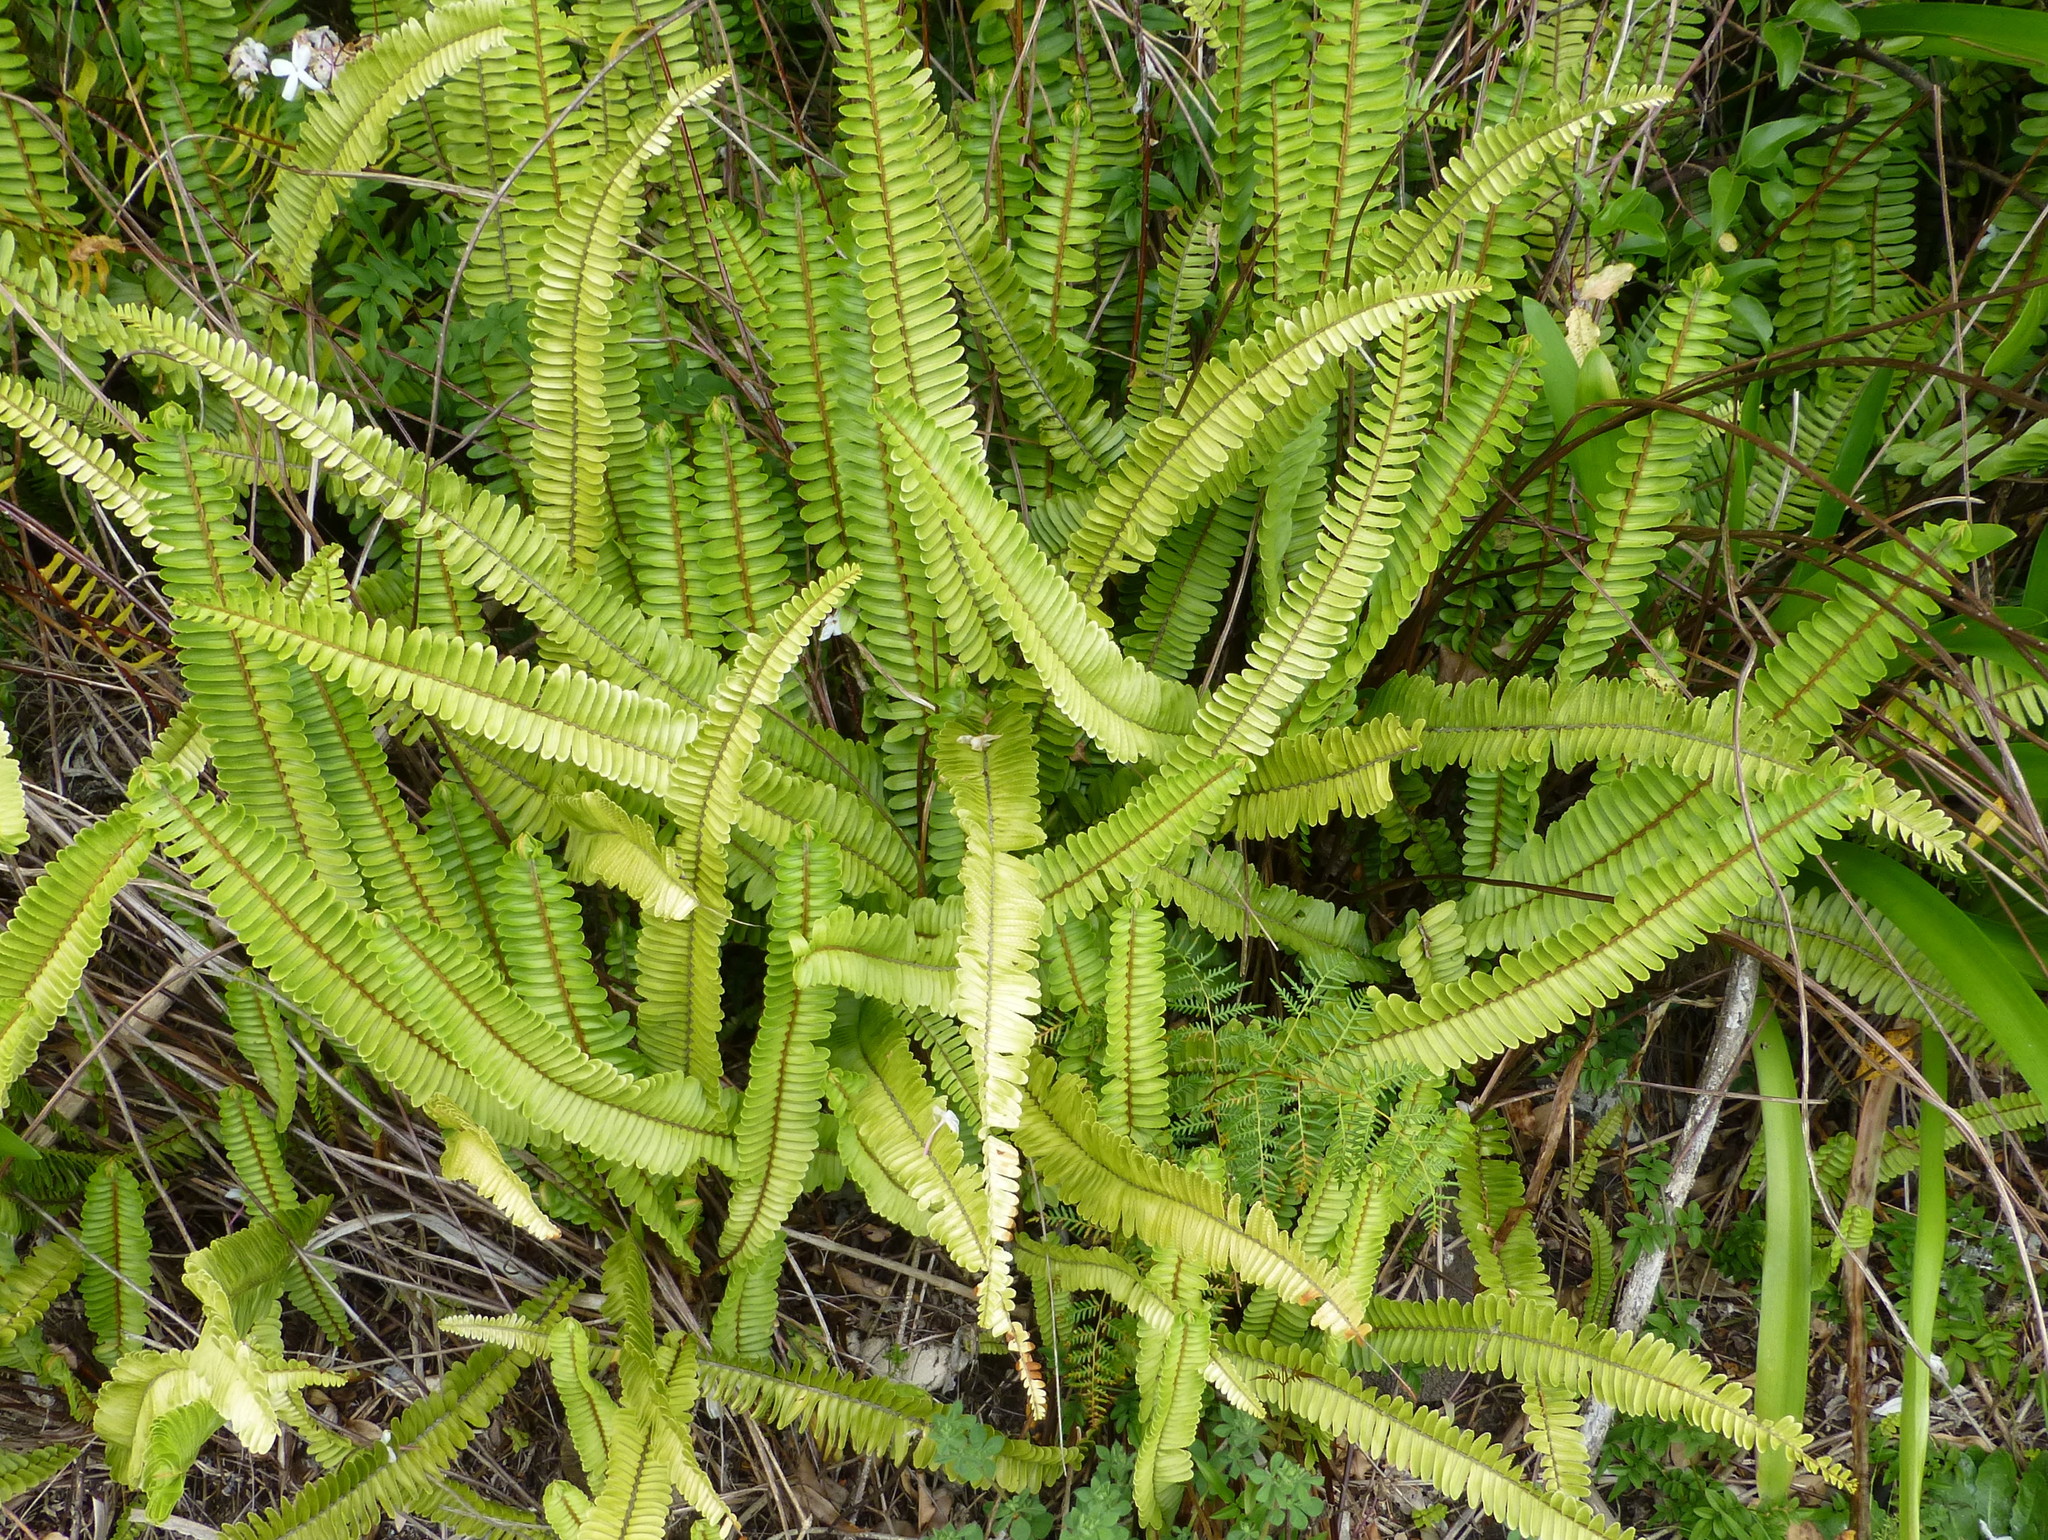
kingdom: Plantae
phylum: Tracheophyta
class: Polypodiopsida
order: Polypodiales
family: Nephrolepidaceae
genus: Nephrolepis
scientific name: Nephrolepis cordifolia
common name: Narrow swordfern
